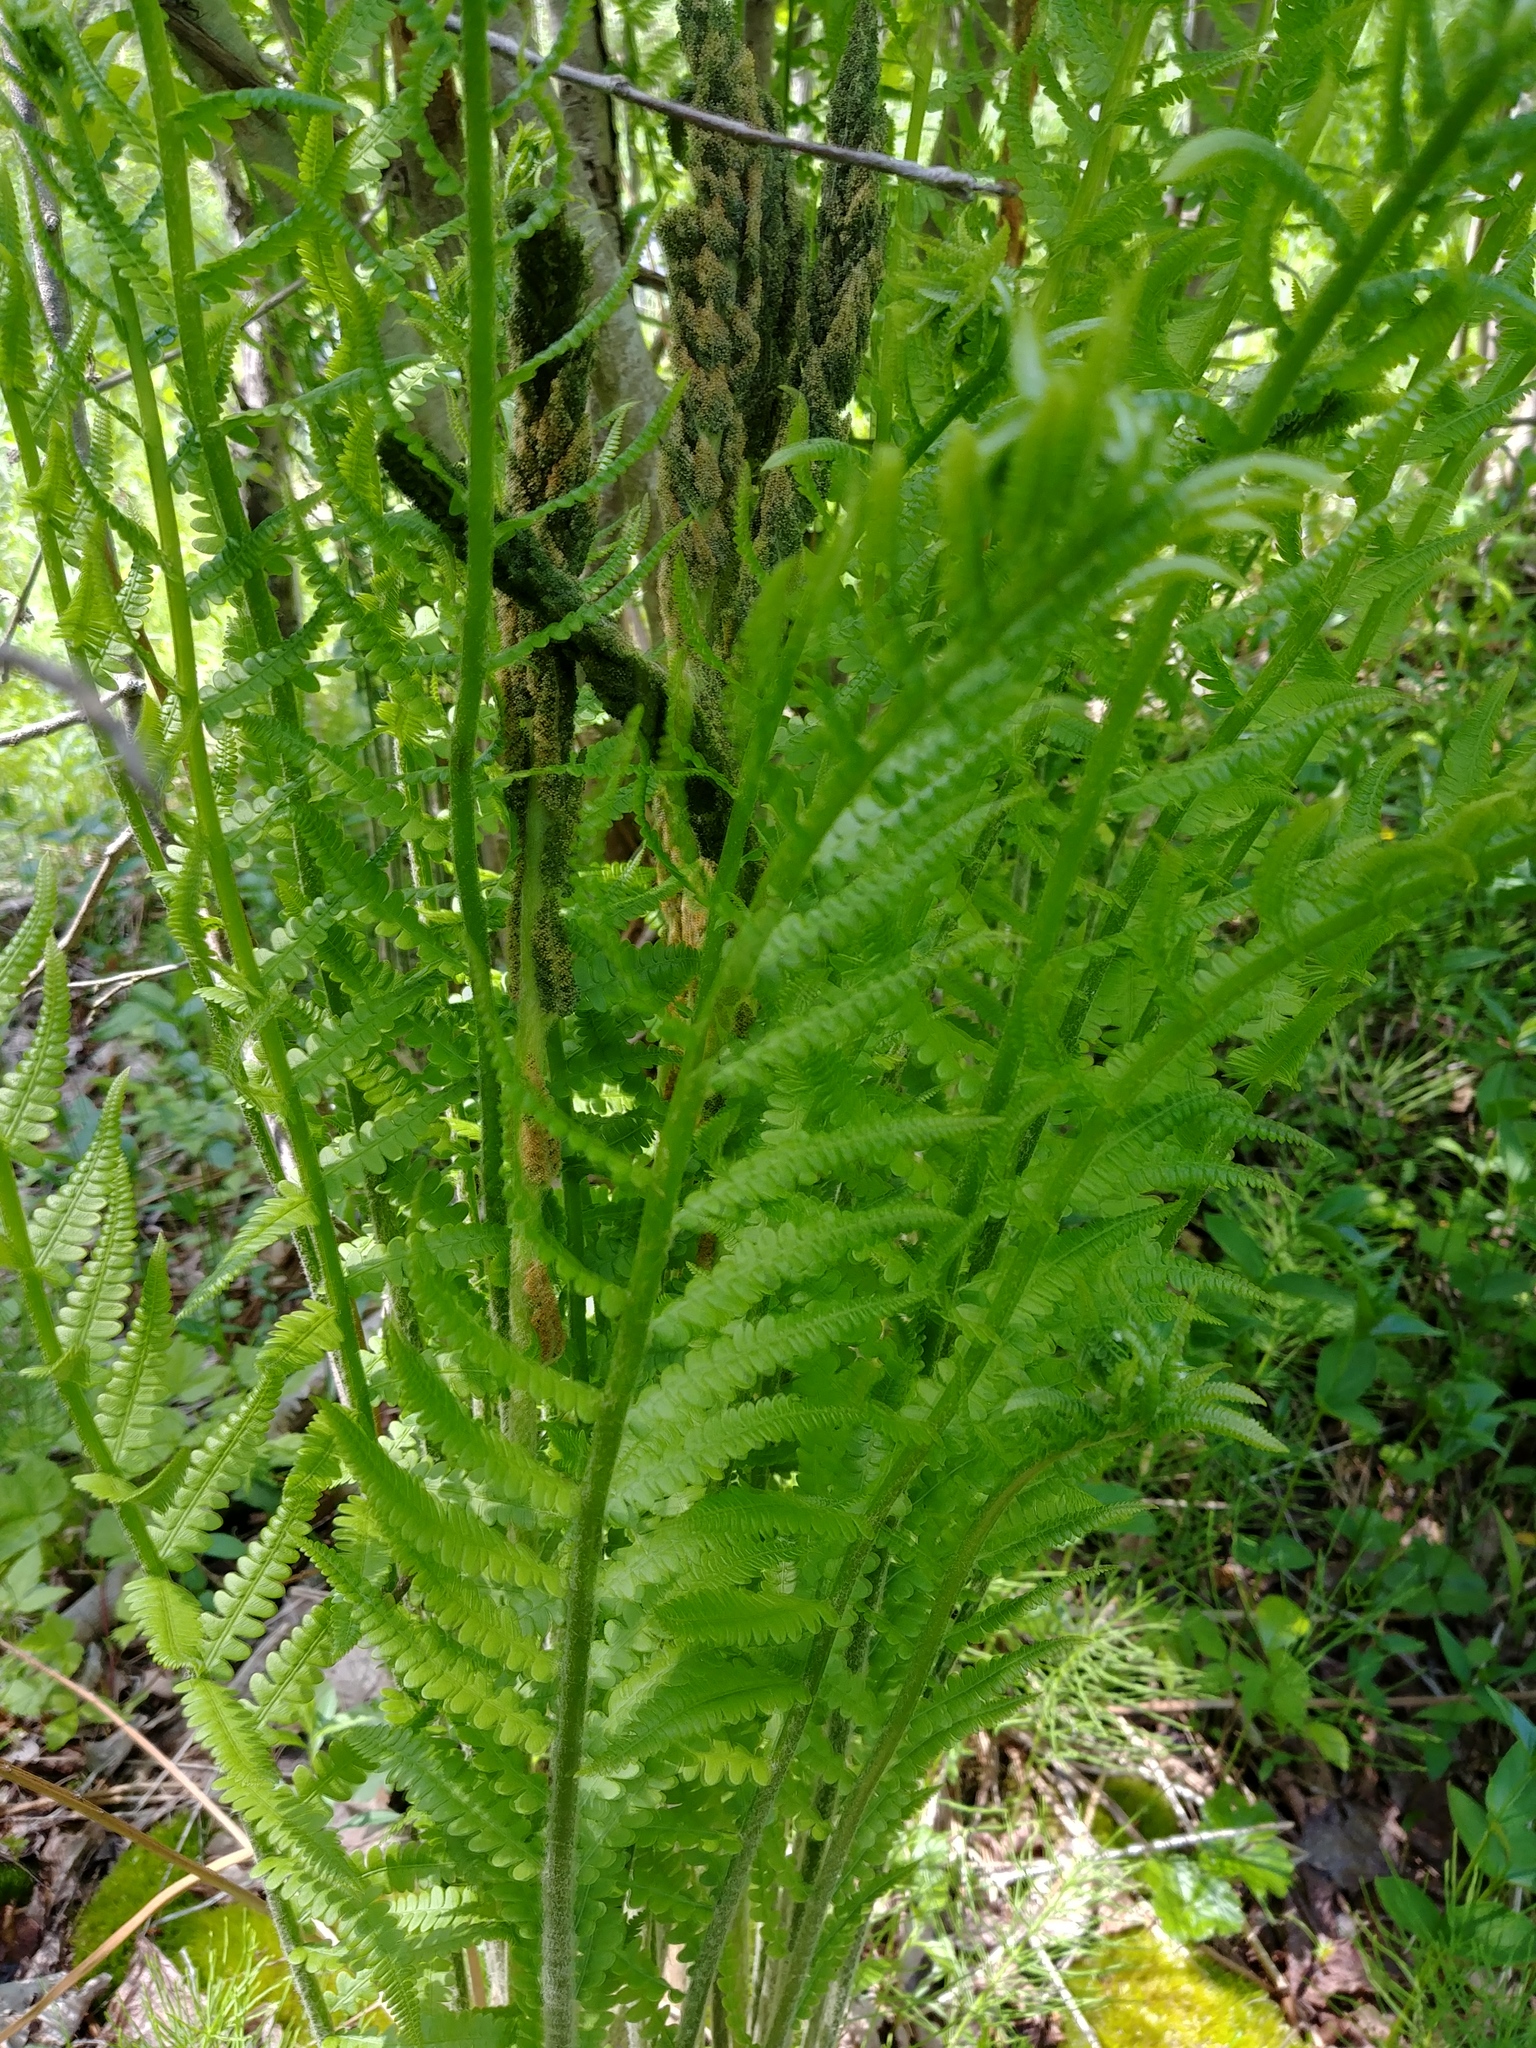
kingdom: Plantae
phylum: Tracheophyta
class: Polypodiopsida
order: Osmundales
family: Osmundaceae
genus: Osmundastrum
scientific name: Osmundastrum cinnamomeum
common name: Cinnamon fern
